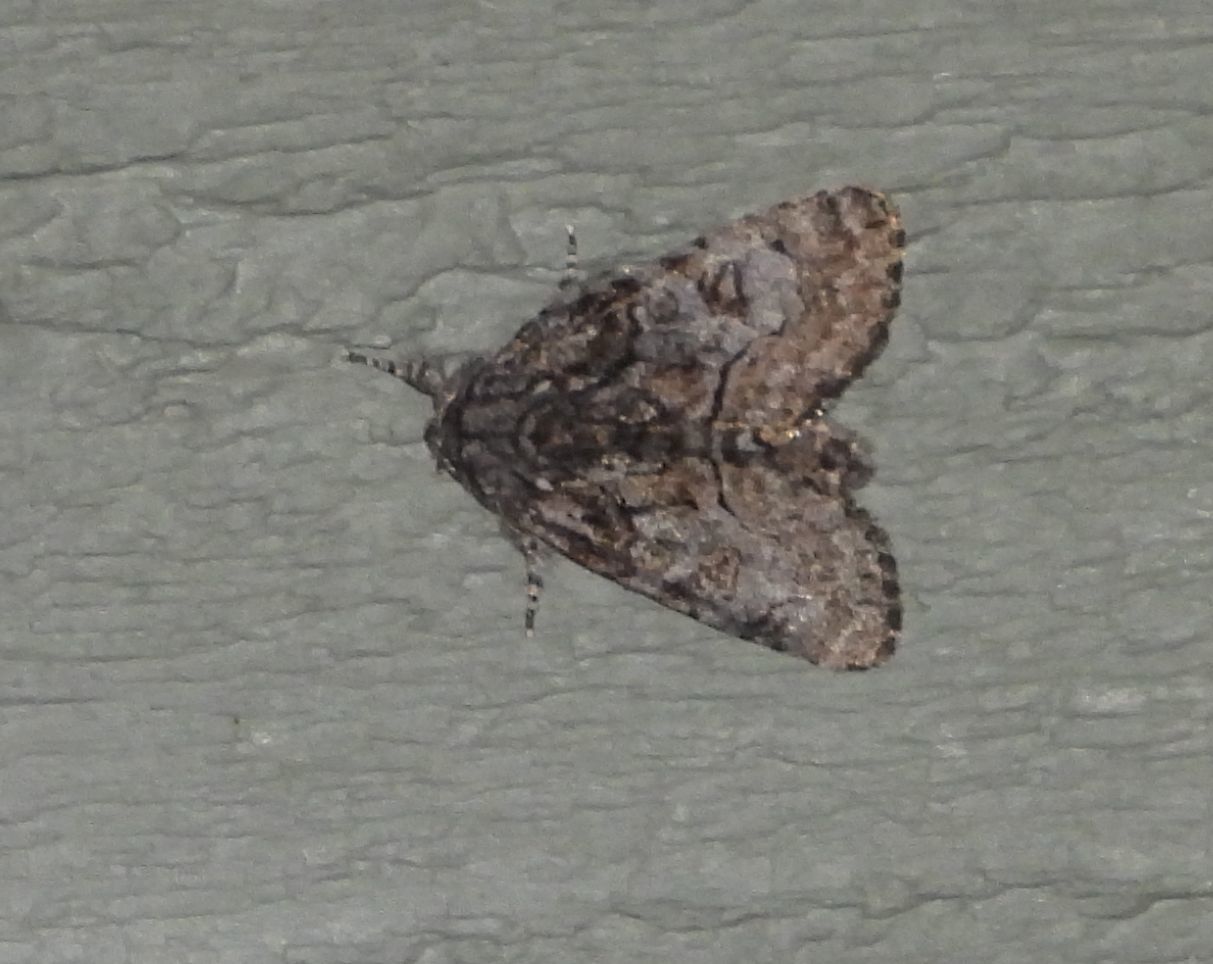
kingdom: Animalia
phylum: Arthropoda
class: Insecta
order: Lepidoptera
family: Noctuidae
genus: Raphia
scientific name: Raphia frater
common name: Brother
